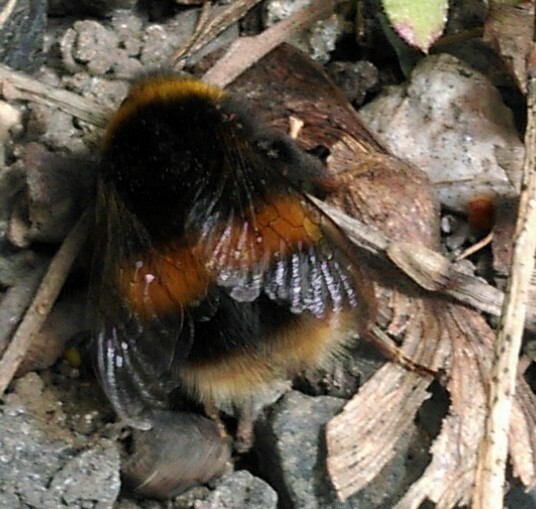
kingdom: Animalia
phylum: Arthropoda
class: Insecta
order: Hymenoptera
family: Apidae
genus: Bombus
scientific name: Bombus terrestris
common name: Buff-tailed bumblebee
